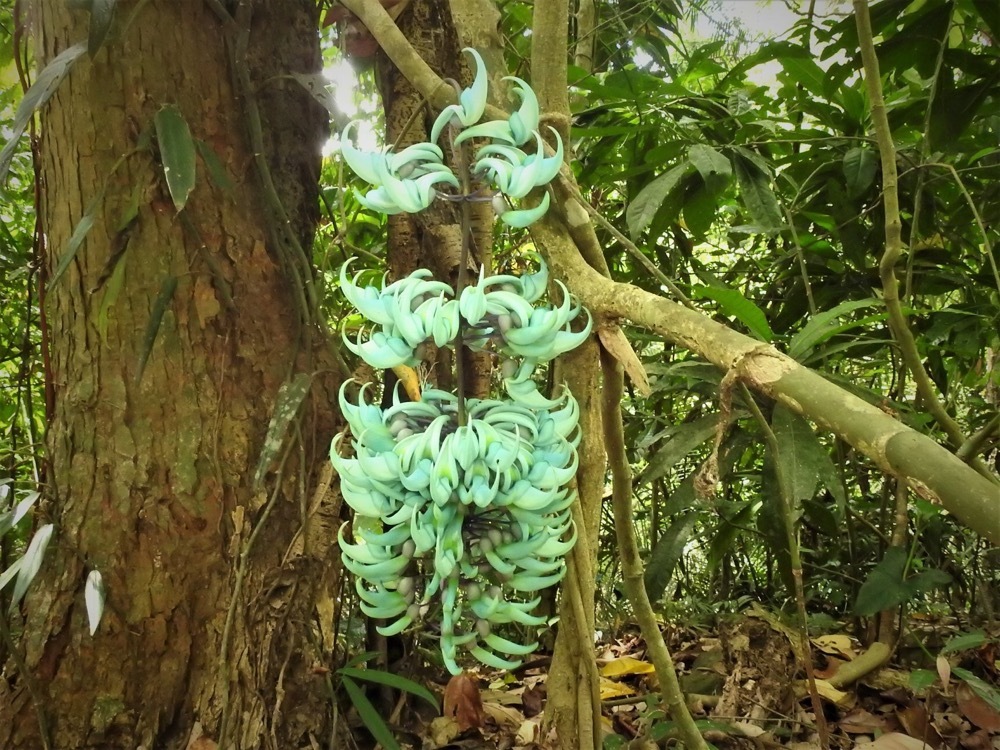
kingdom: Plantae
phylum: Tracheophyta
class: Magnoliopsida
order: Fabales
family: Fabaceae
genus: Strongylodon
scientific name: Strongylodon macrobotrys
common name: Jadevine
